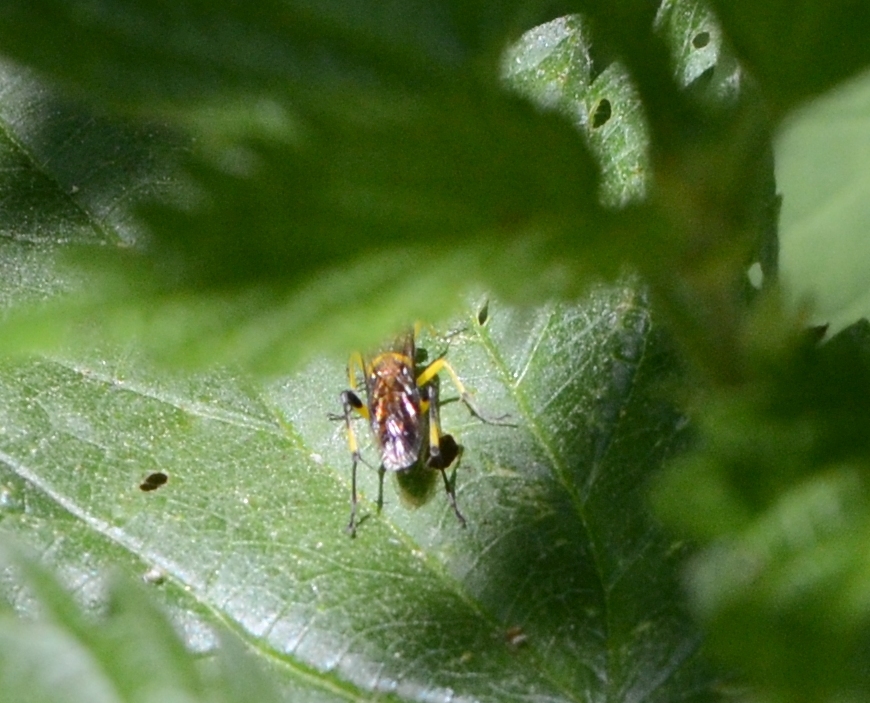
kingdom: Animalia
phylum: Arthropoda
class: Insecta
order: Hymenoptera
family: Tenthredinidae
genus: Macrophya
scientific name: Macrophya montana
